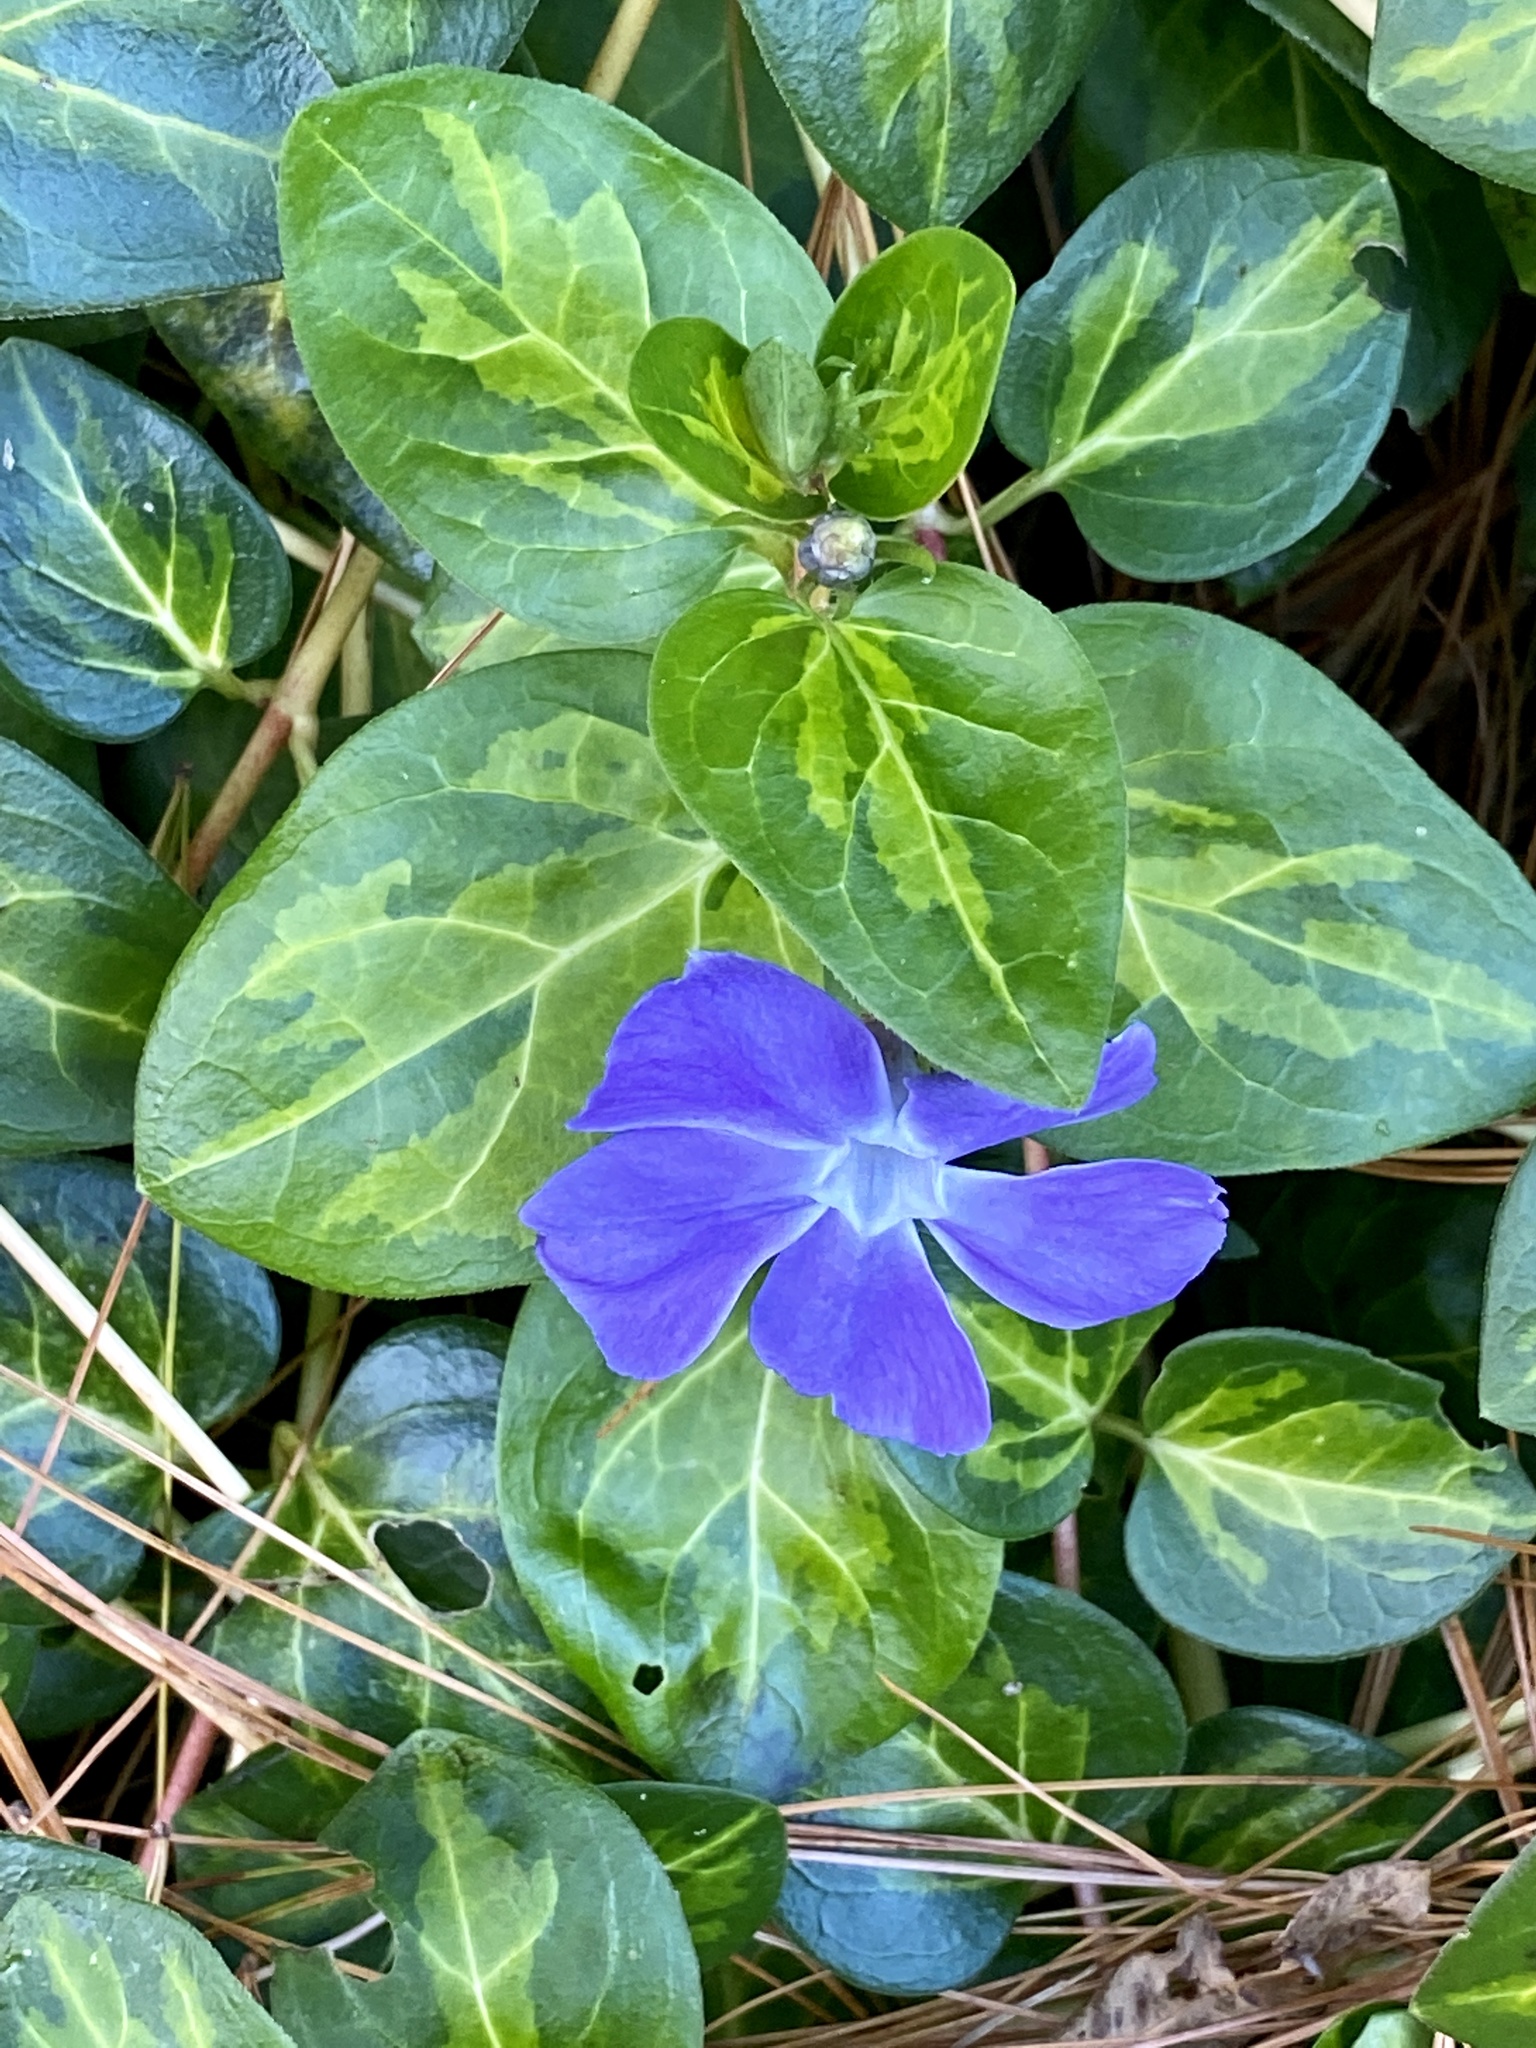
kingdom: Plantae
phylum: Tracheophyta
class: Magnoliopsida
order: Gentianales
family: Apocynaceae
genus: Vinca
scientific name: Vinca major
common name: Greater periwinkle
